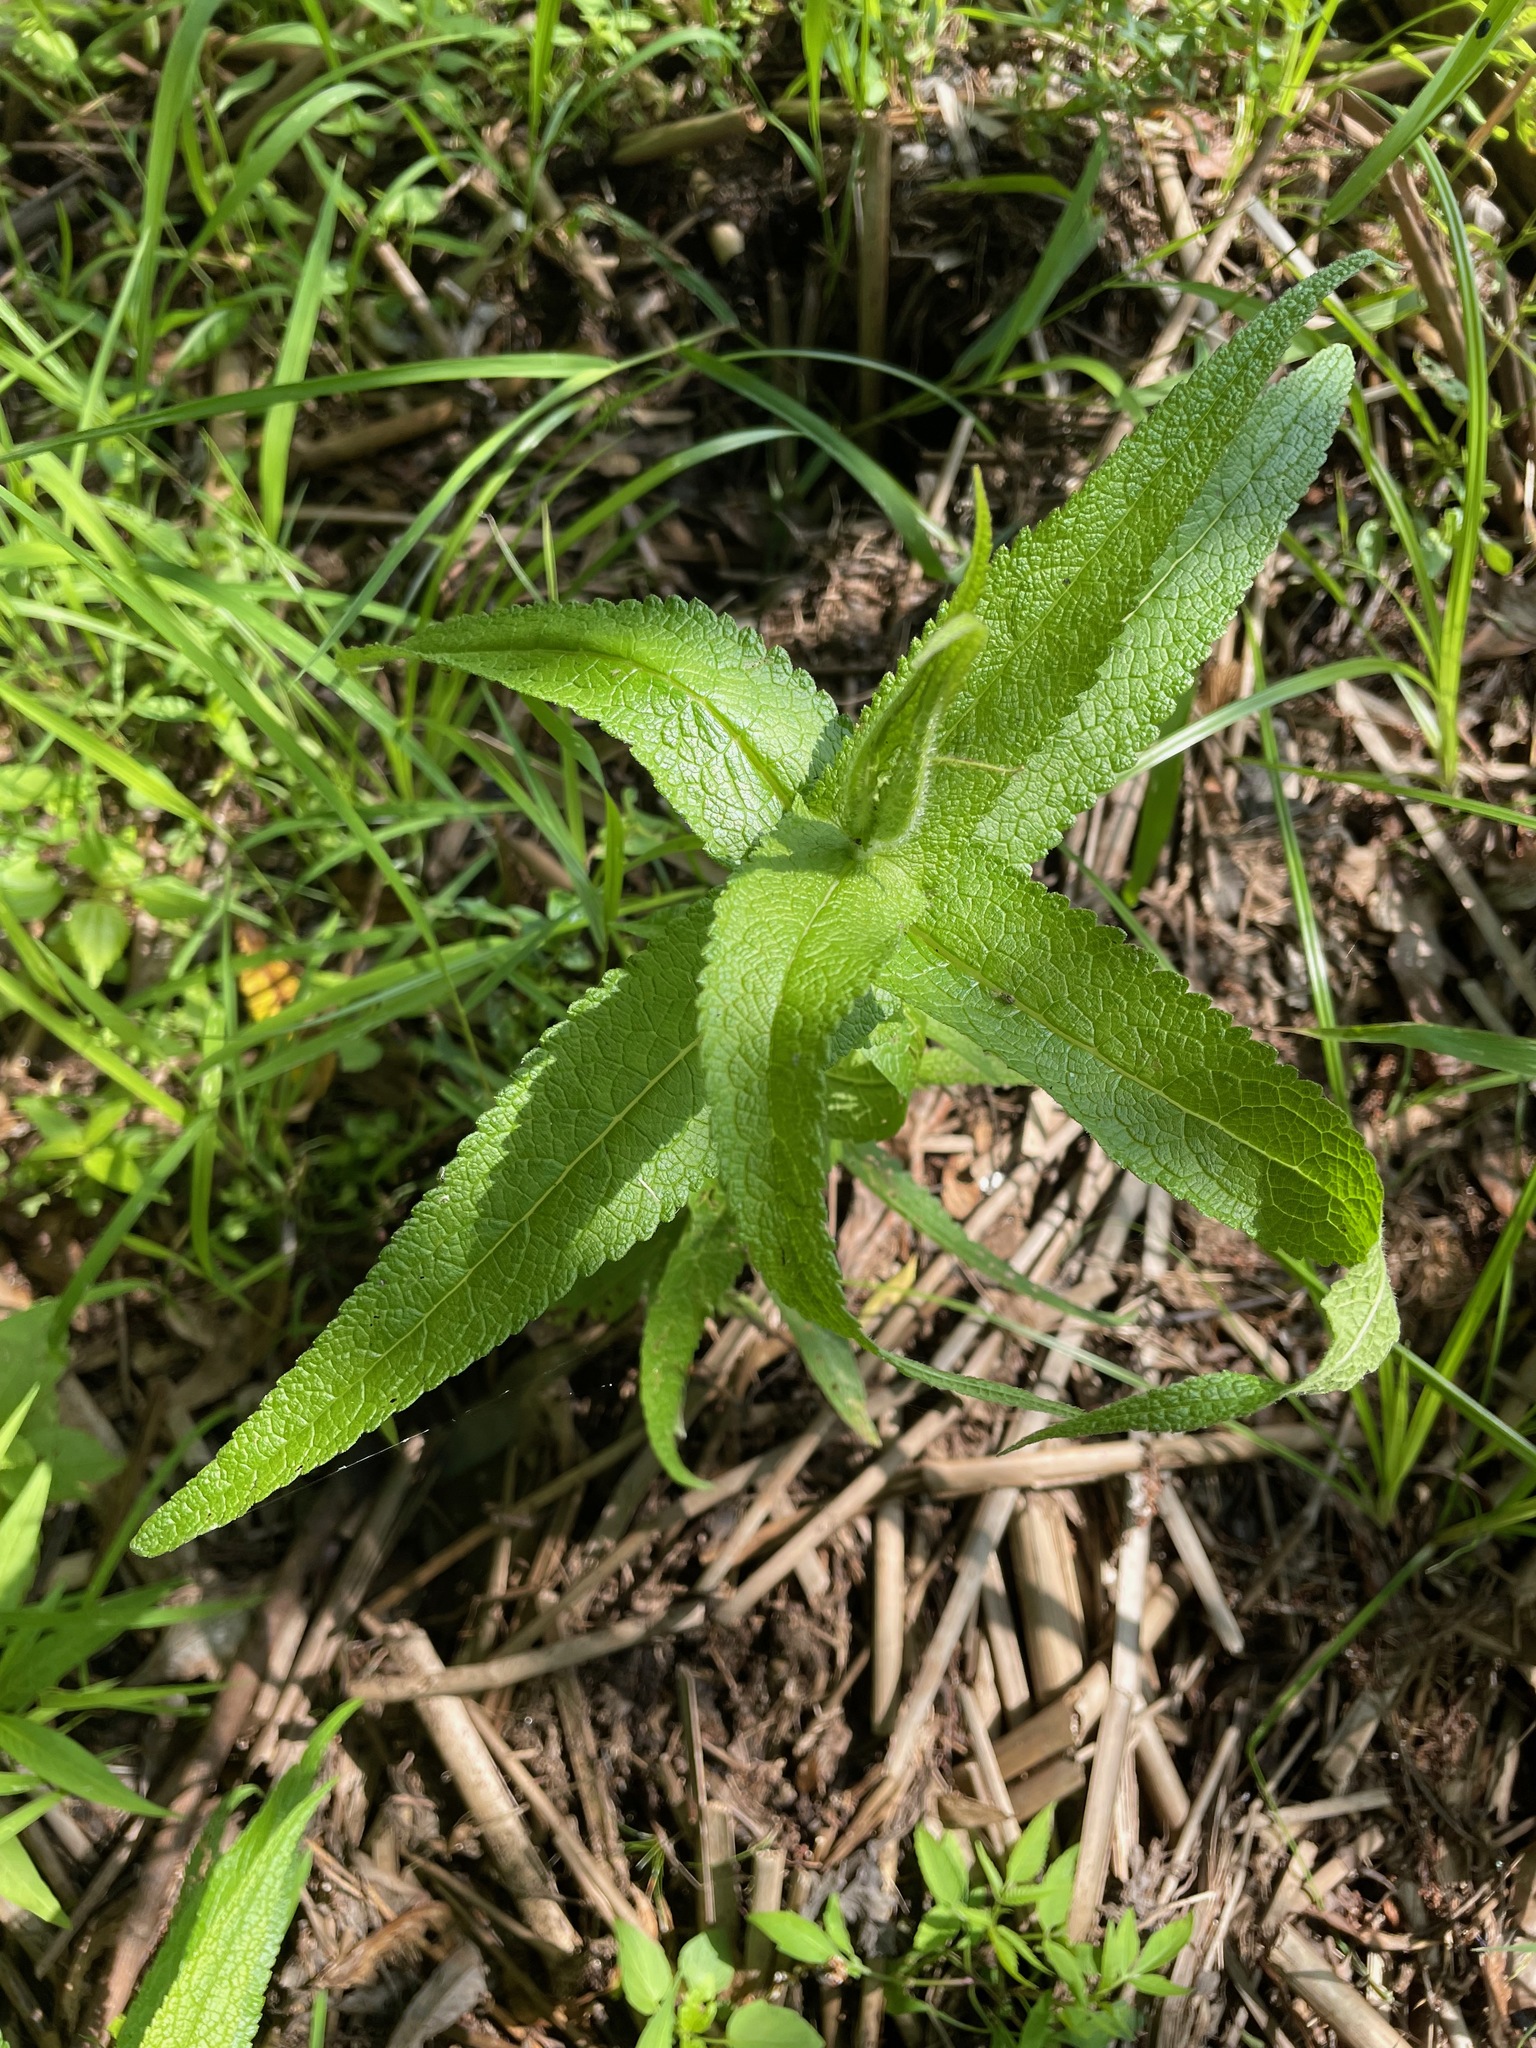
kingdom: Plantae
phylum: Tracheophyta
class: Magnoliopsida
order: Asterales
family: Asteraceae
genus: Eupatorium
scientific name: Eupatorium perfoliatum
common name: Boneset
